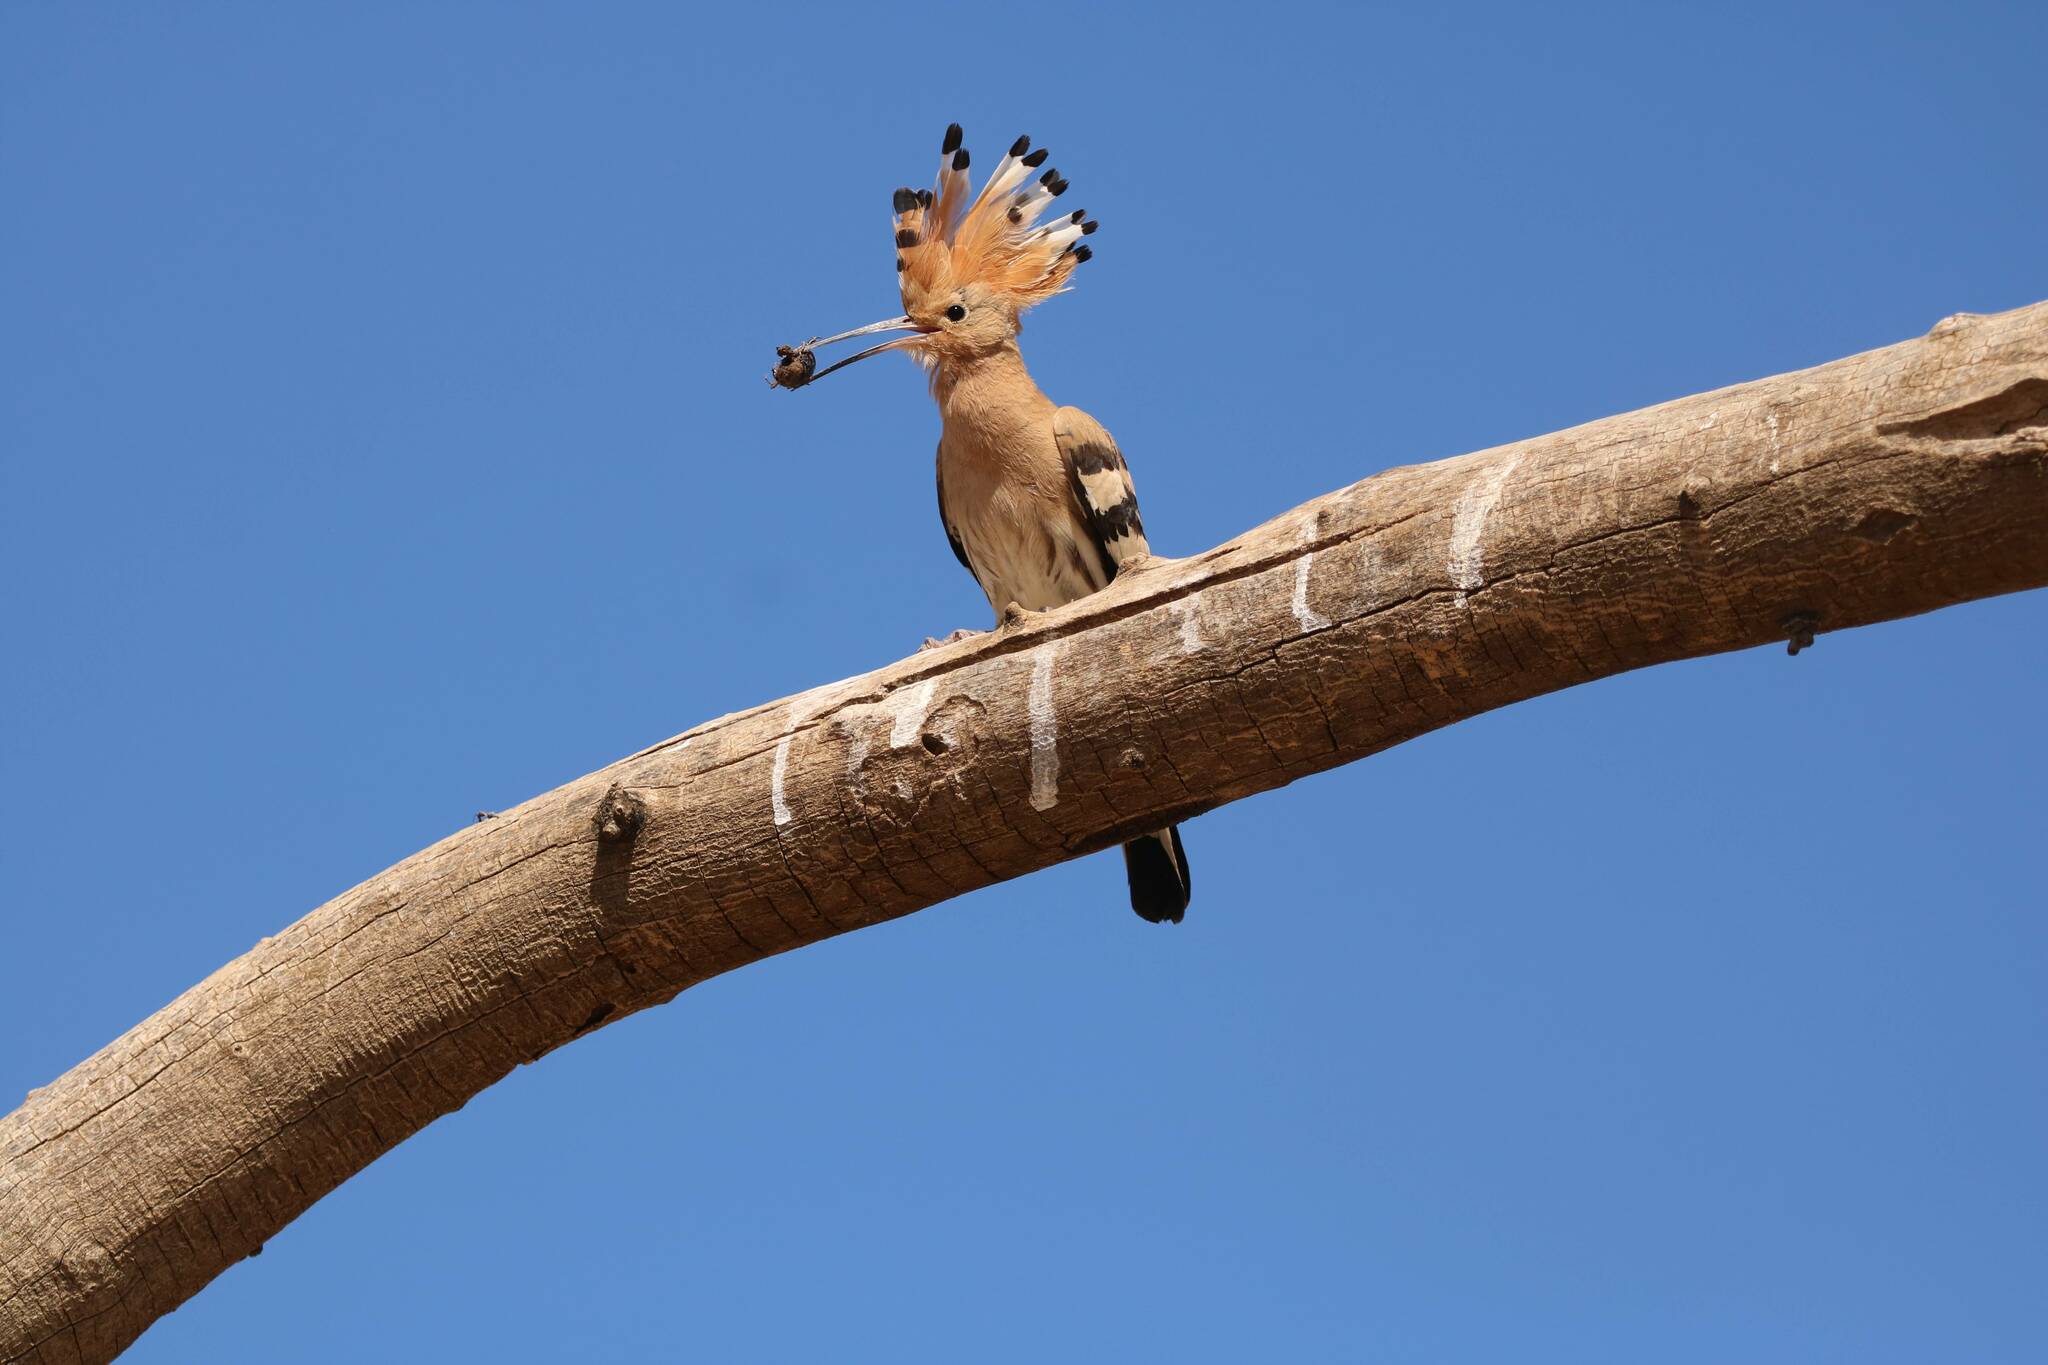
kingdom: Animalia
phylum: Chordata
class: Aves
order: Bucerotiformes
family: Upupidae
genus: Upupa
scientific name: Upupa epops
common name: Eurasian hoopoe
